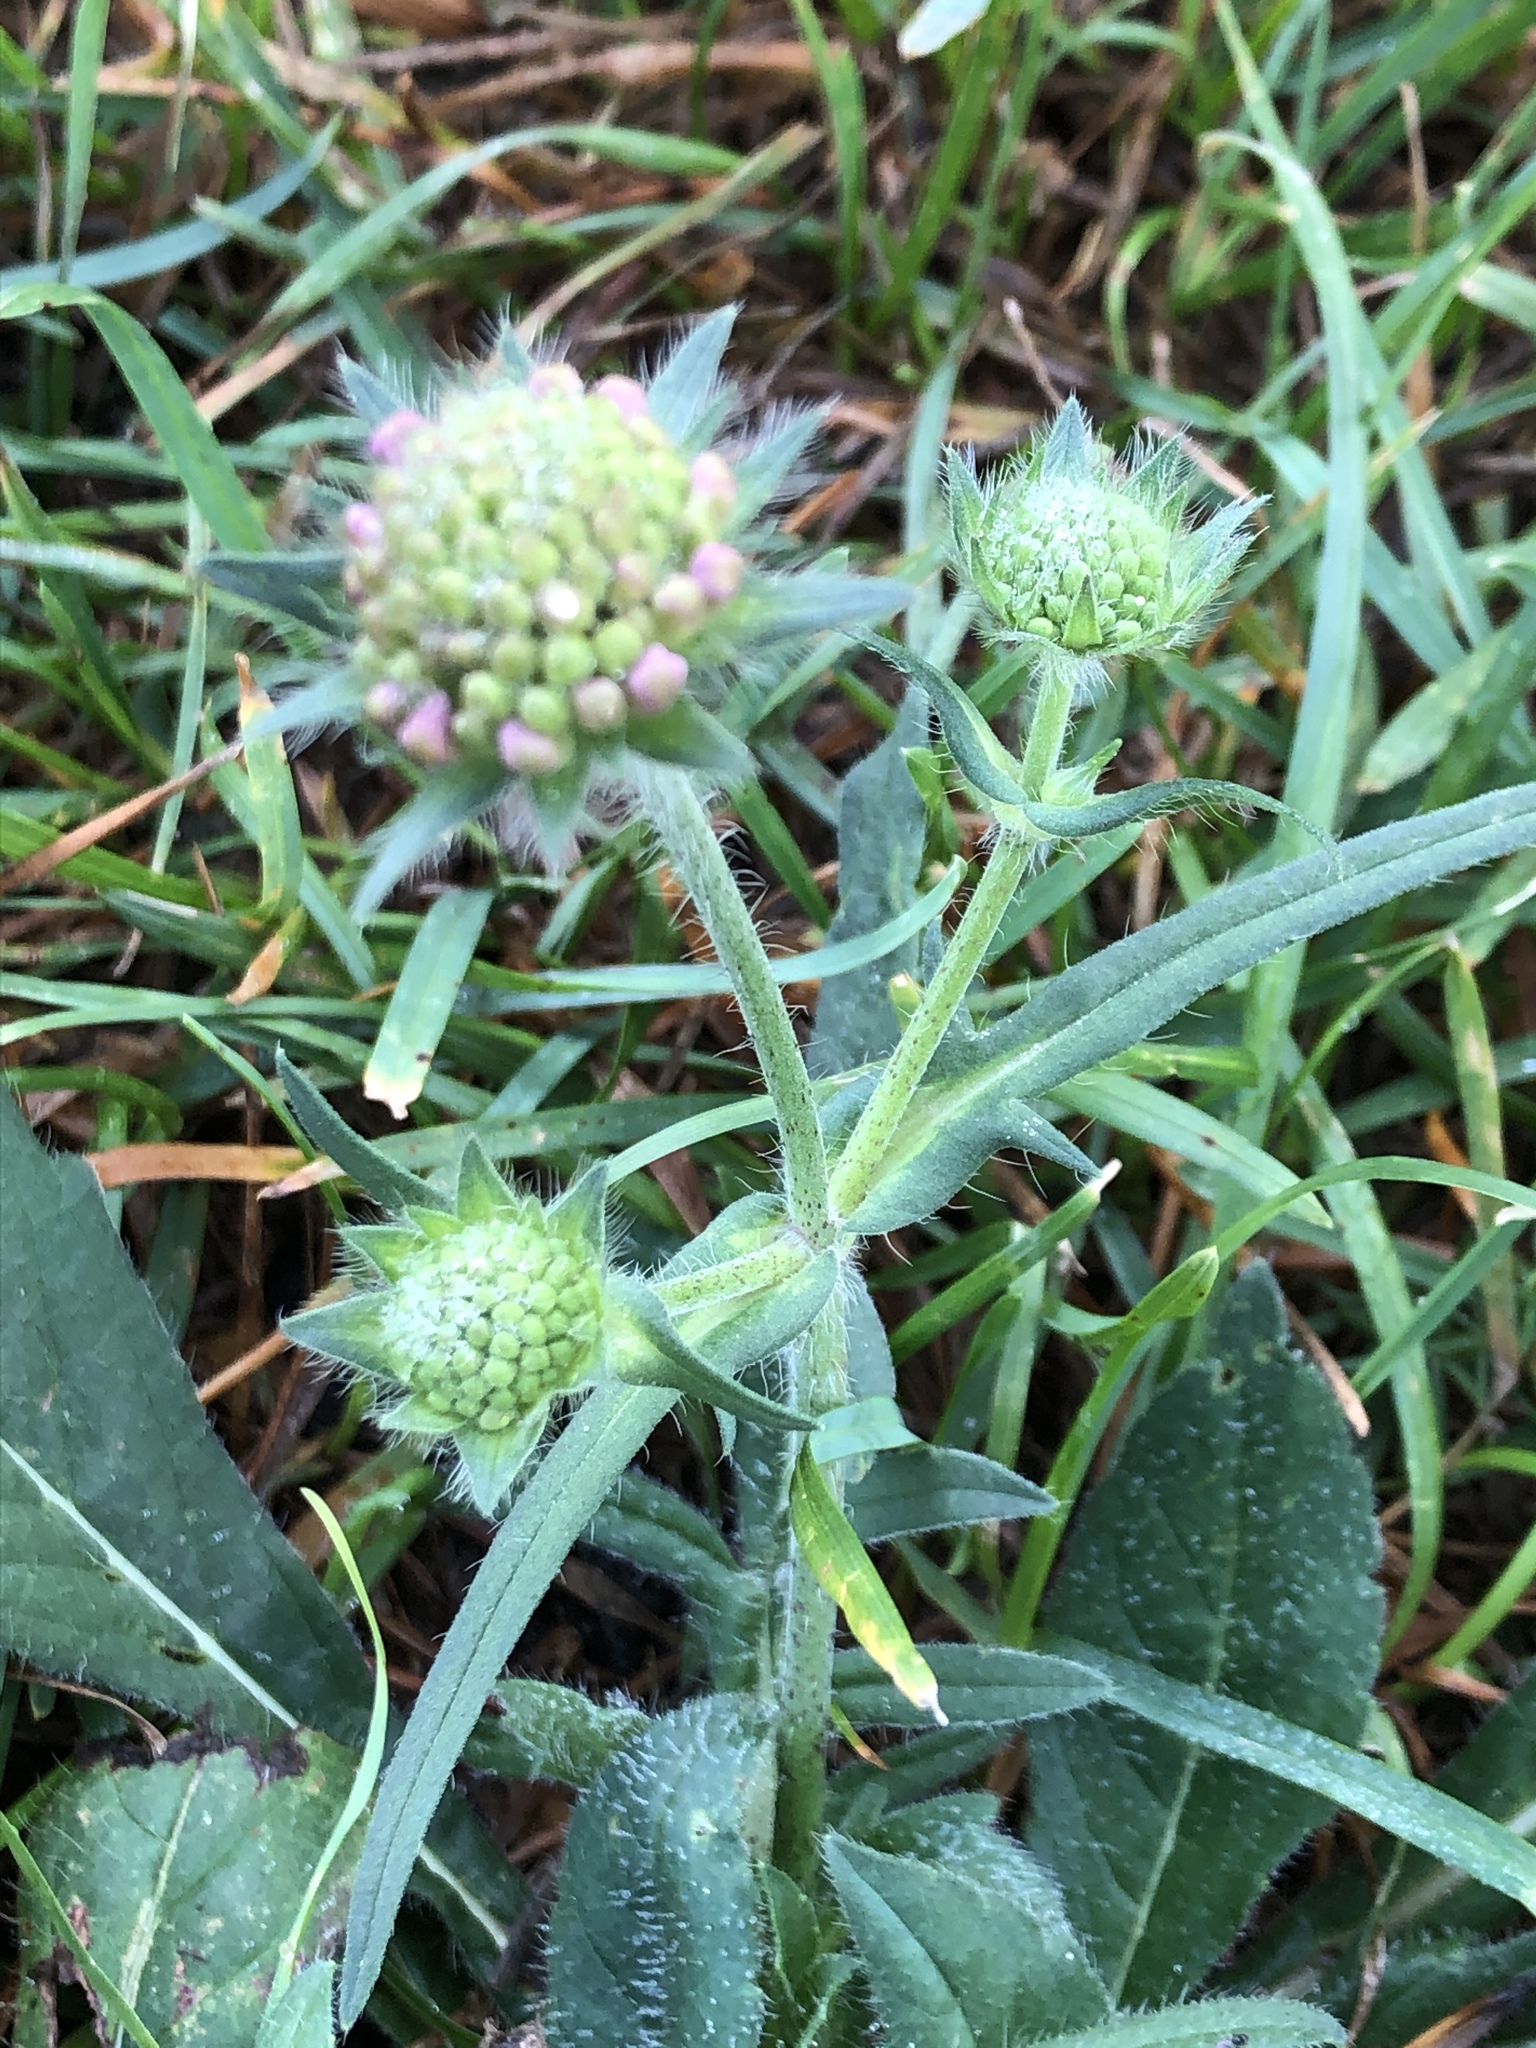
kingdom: Plantae
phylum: Tracheophyta
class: Magnoliopsida
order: Dipsacales
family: Caprifoliaceae
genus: Knautia
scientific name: Knautia arvensis
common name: Field scabiosa
